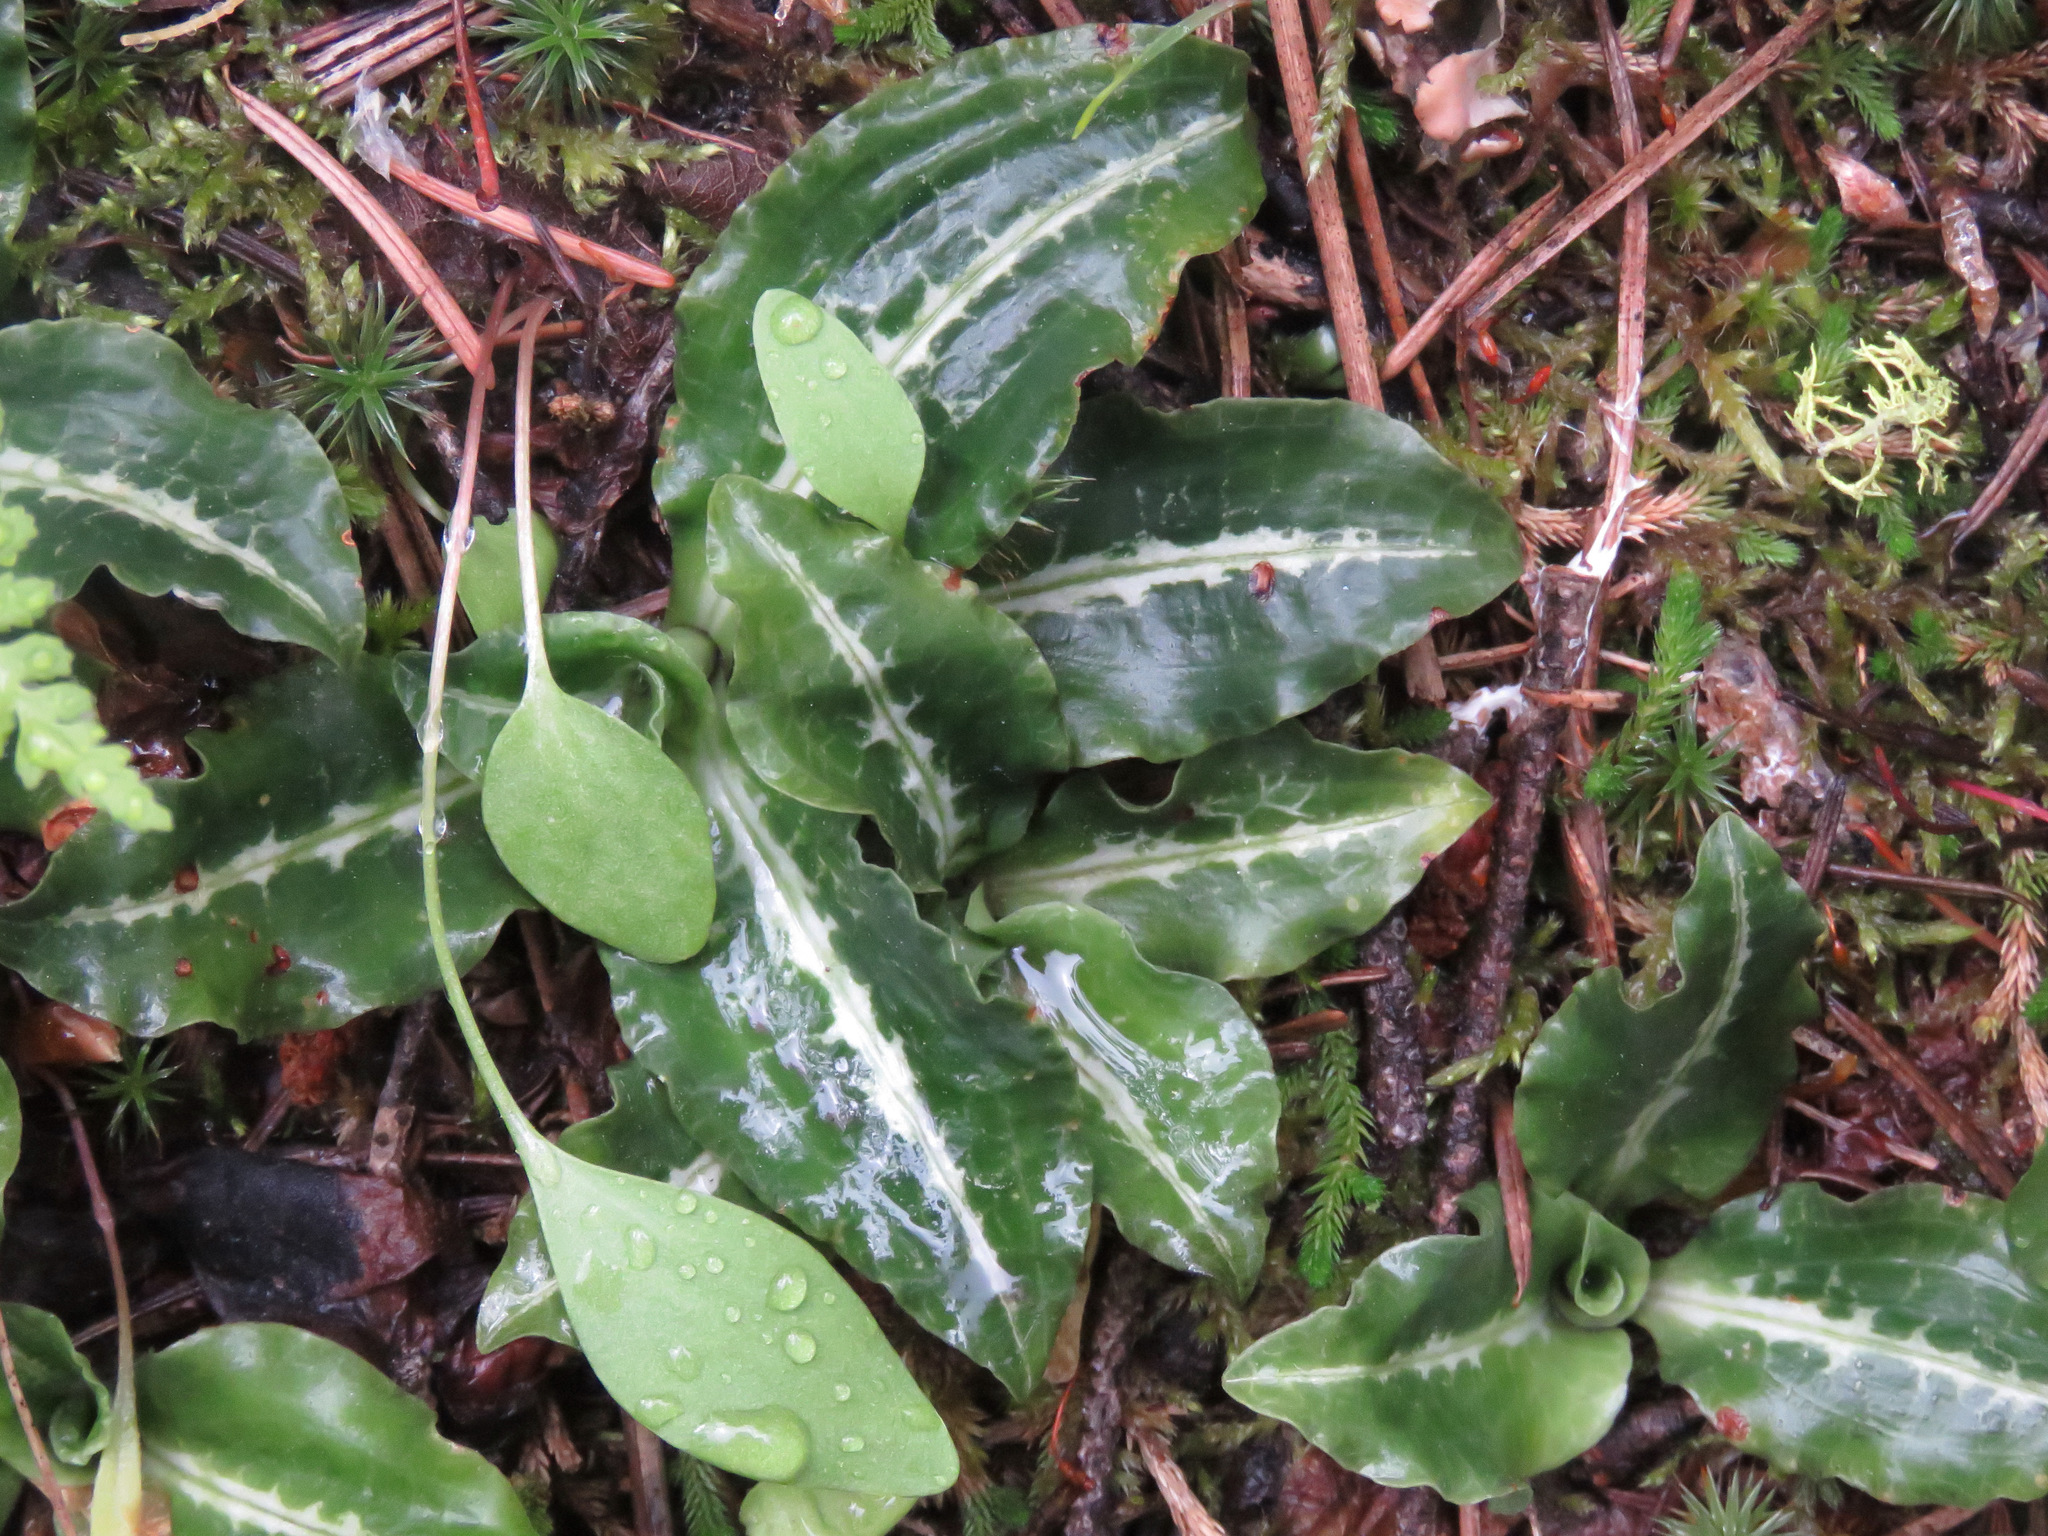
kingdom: Plantae
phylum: Tracheophyta
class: Liliopsida
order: Asparagales
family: Orchidaceae
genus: Goodyera
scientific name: Goodyera oblongifolia
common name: Giant rattlesnake-plantain
